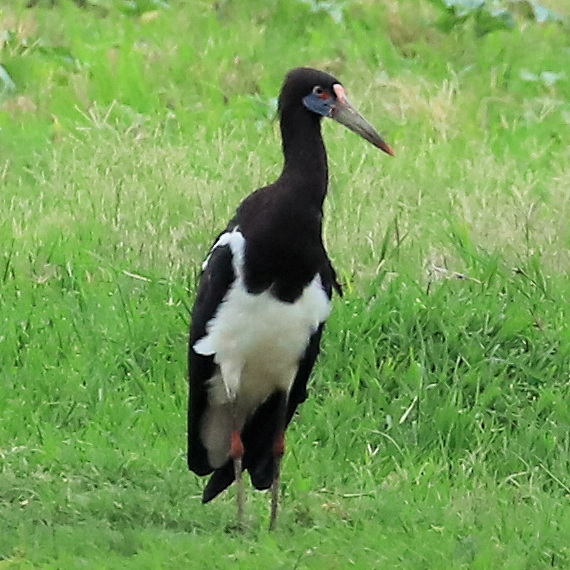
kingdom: Animalia
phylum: Chordata
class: Aves
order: Ciconiiformes
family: Ciconiidae
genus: Ciconia
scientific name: Ciconia abdimii
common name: Abdim's stork
